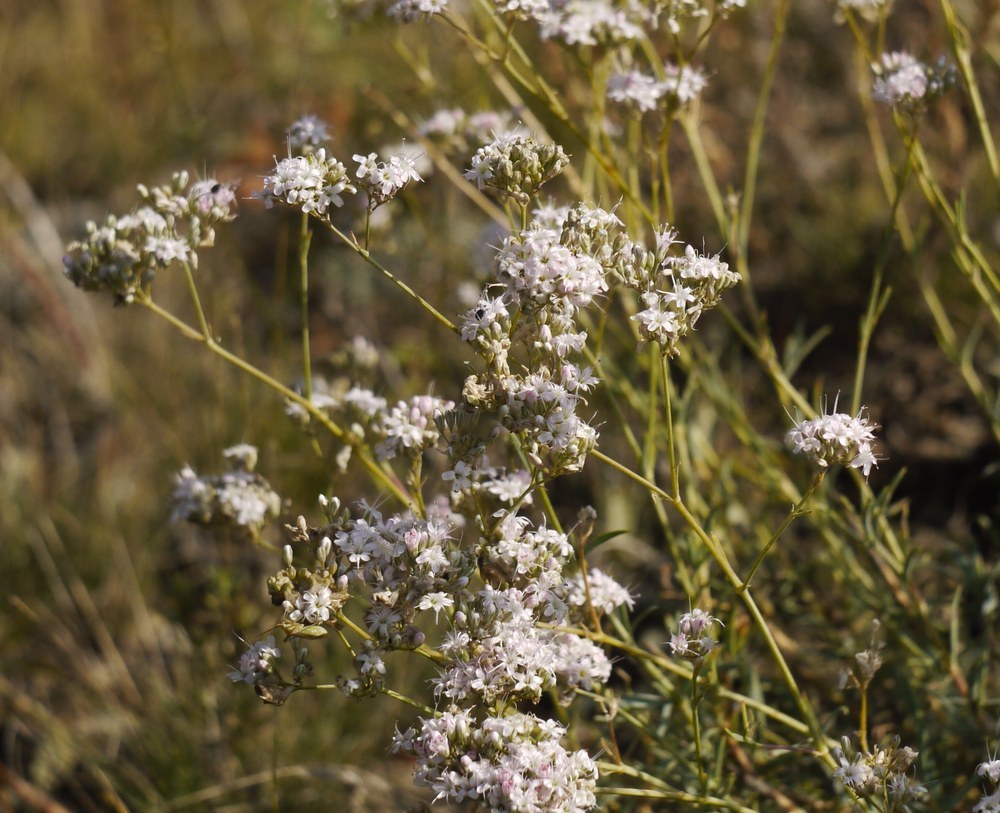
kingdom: Plantae
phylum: Tracheophyta
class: Magnoliopsida
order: Caryophyllales
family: Caryophyllaceae
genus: Gypsophila
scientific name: Gypsophila collina
